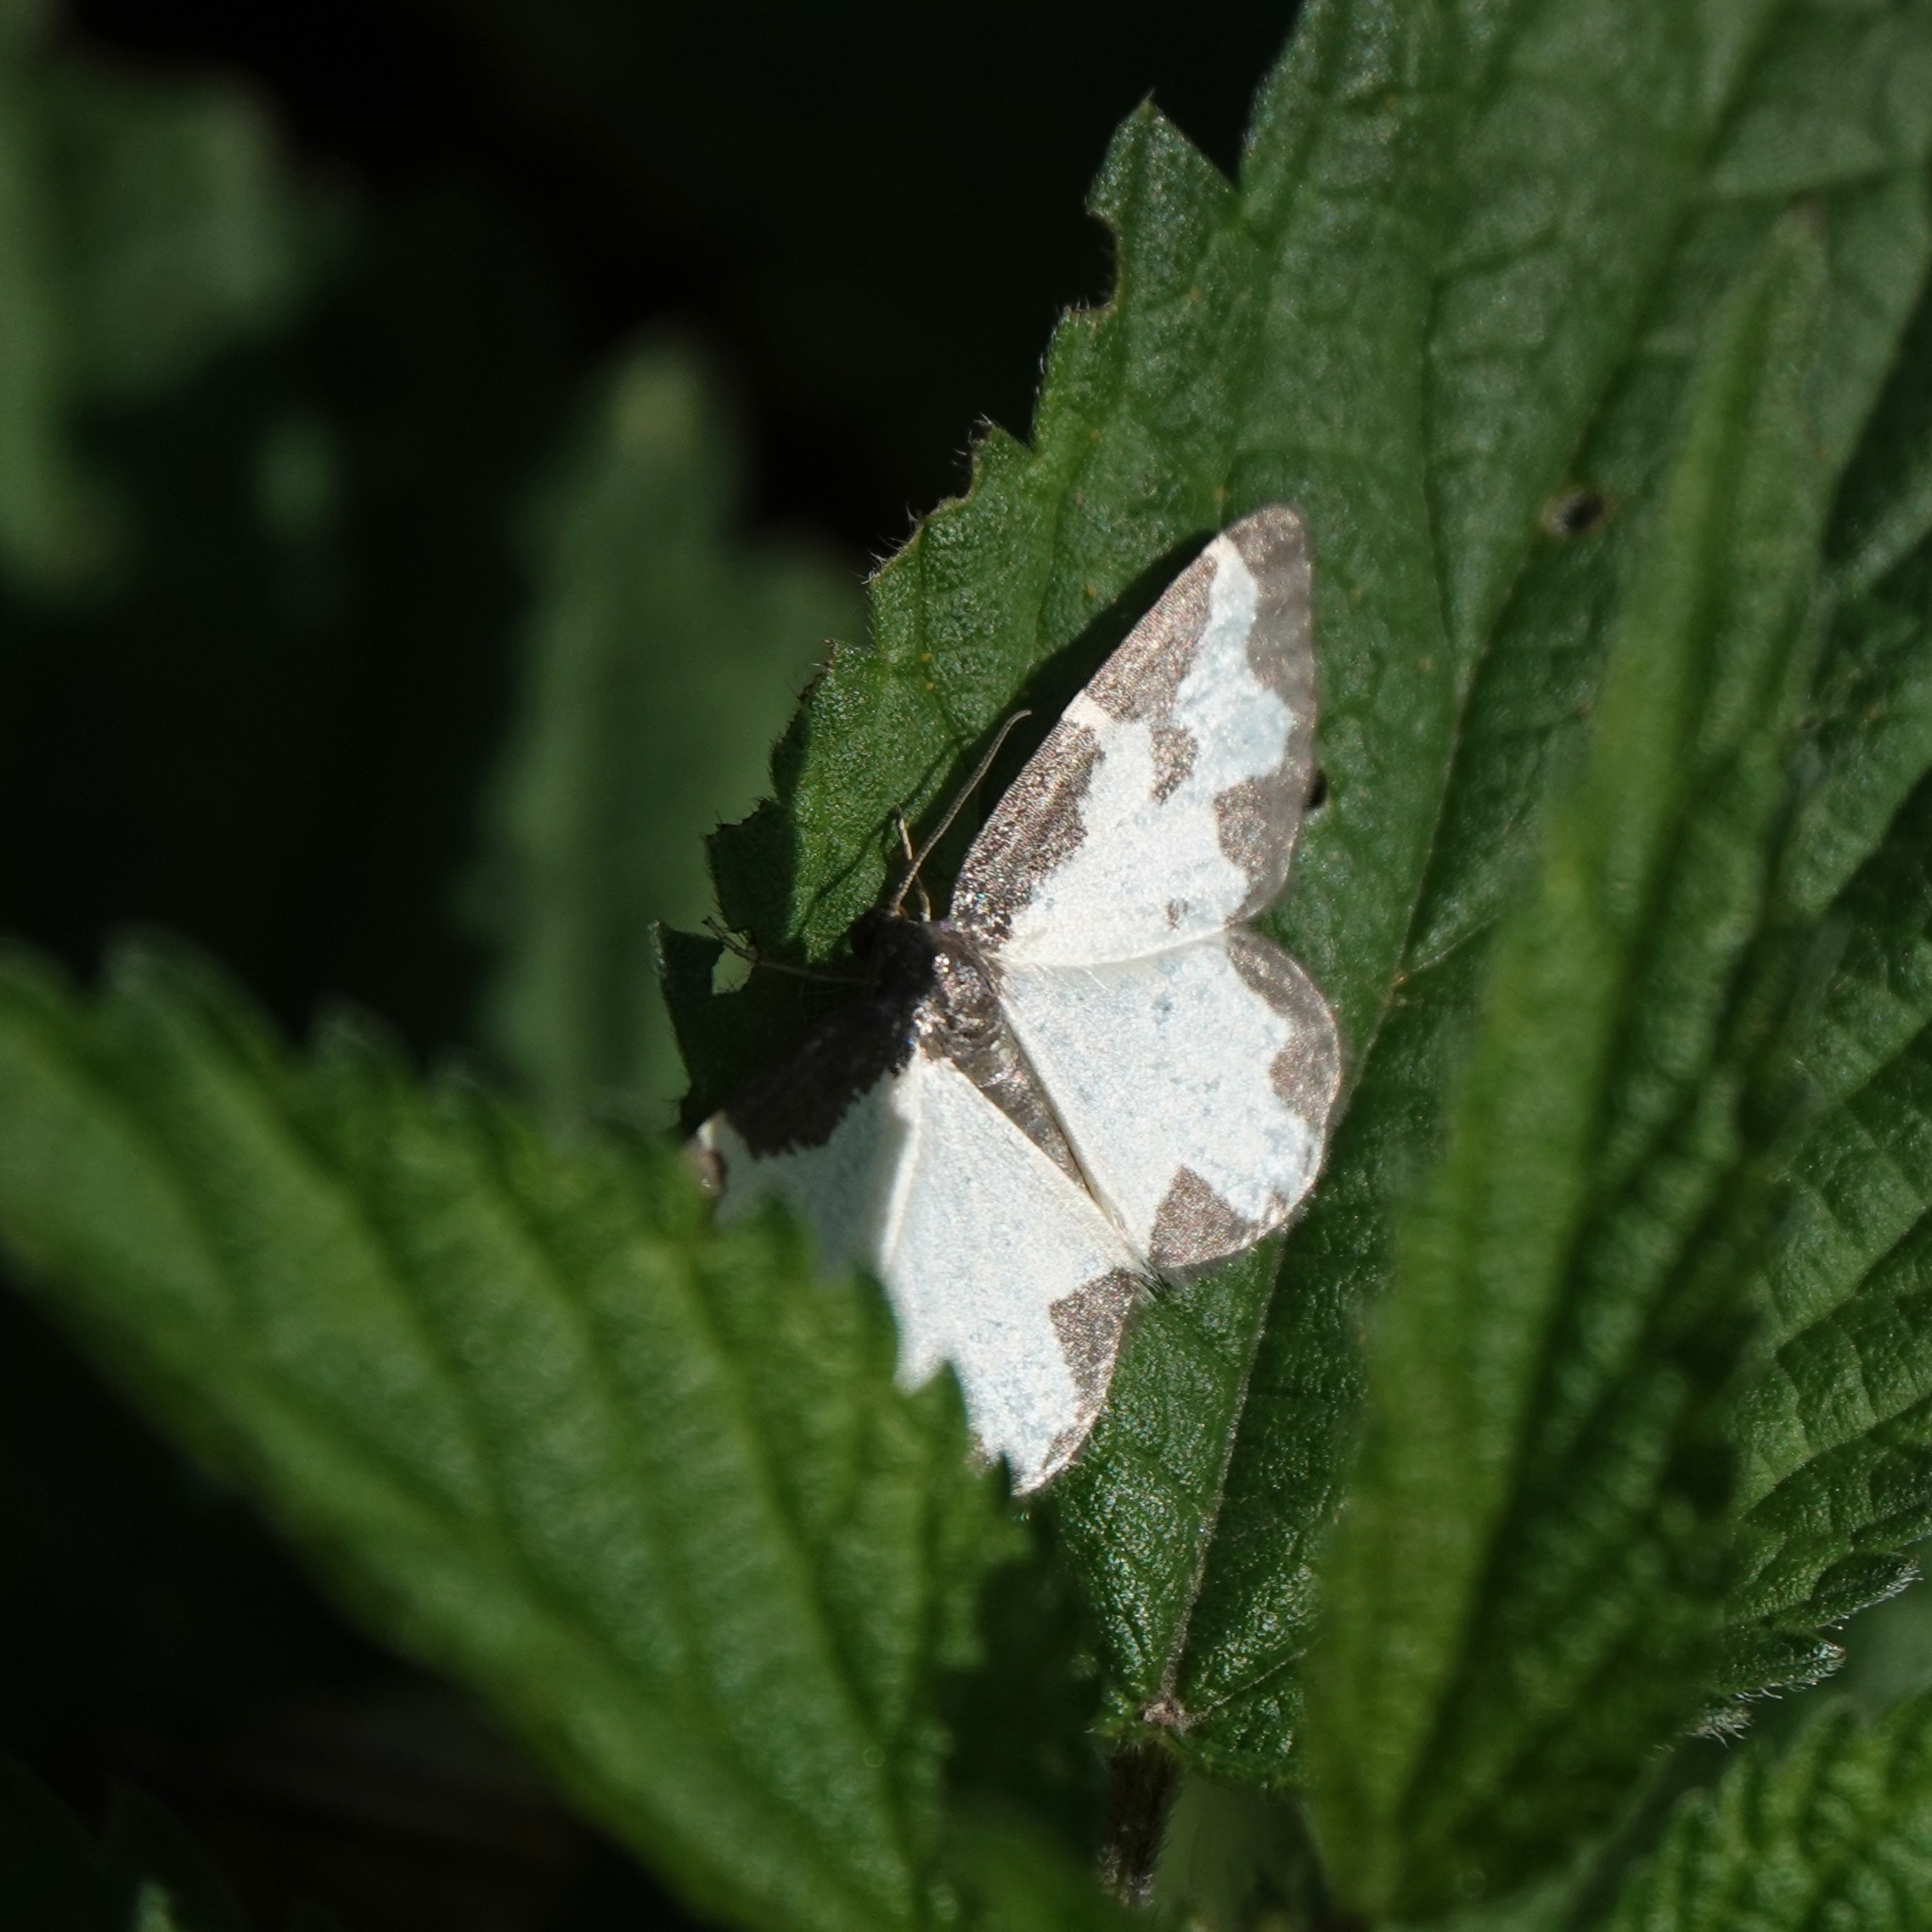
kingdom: Animalia
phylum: Arthropoda
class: Insecta
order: Lepidoptera
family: Geometridae
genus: Lomaspilis
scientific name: Lomaspilis marginata
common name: Clouded border
